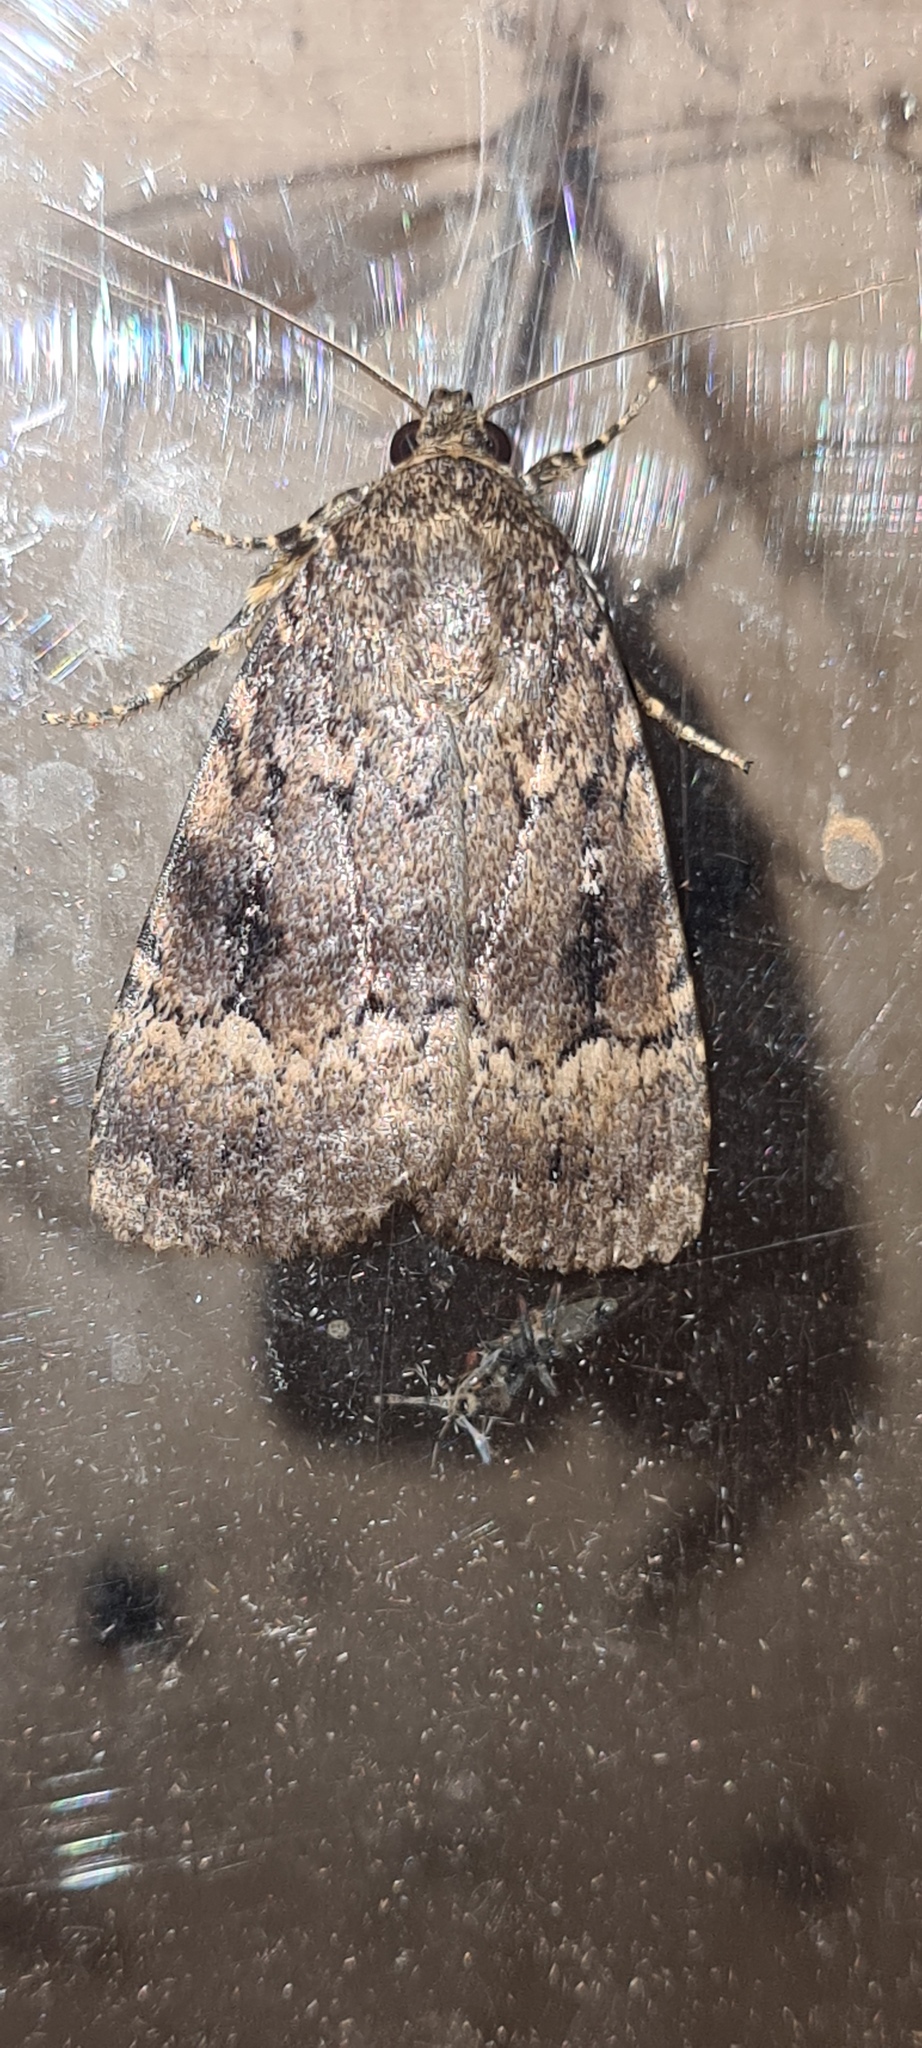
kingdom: Animalia
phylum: Arthropoda
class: Insecta
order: Lepidoptera
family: Noctuidae
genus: Amphipyra
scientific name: Amphipyra pyramidea
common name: Copper underwing
